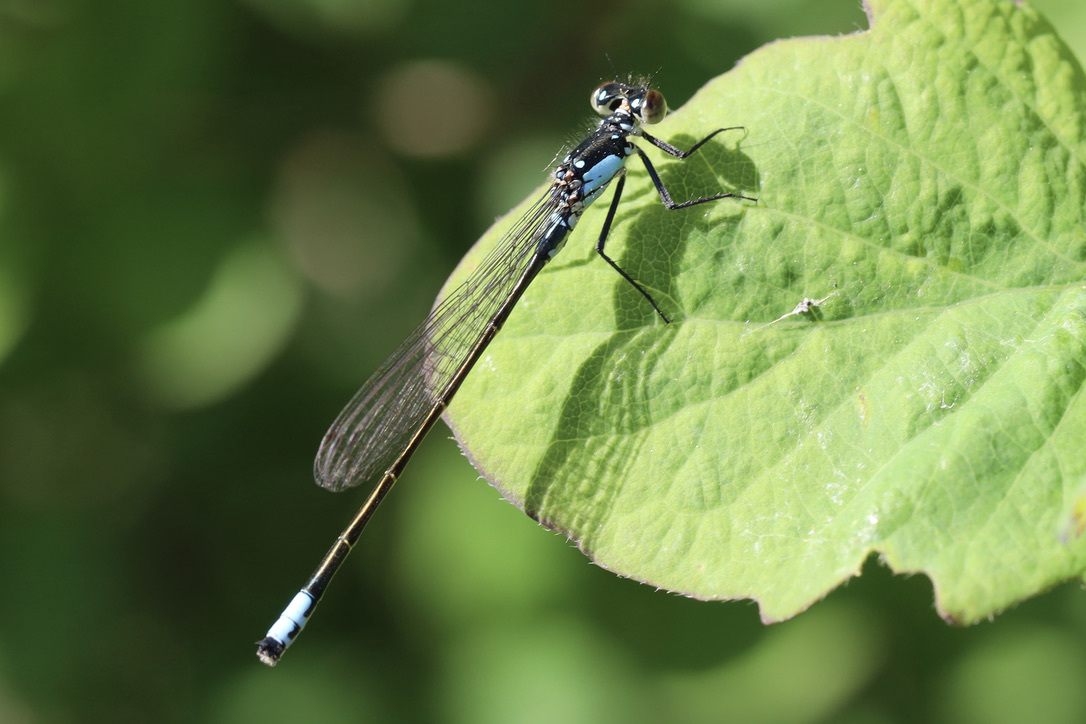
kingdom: Animalia
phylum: Arthropoda
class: Insecta
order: Odonata
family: Coenagrionidae
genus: Ischnura
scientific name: Ischnura cervula
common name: Pacific forktail
